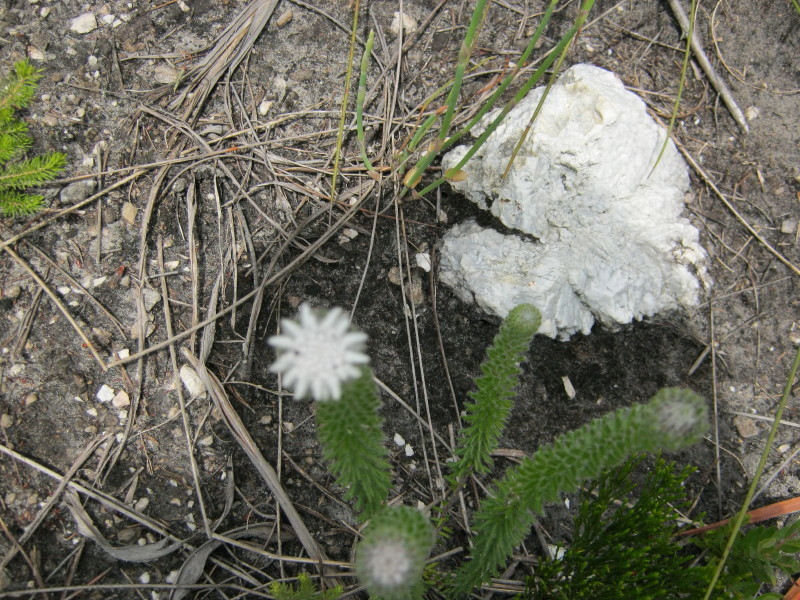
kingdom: Plantae
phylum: Tracheophyta
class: Magnoliopsida
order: Rosales
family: Rhamnaceae
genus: Phylica
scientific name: Phylica curvifolia
